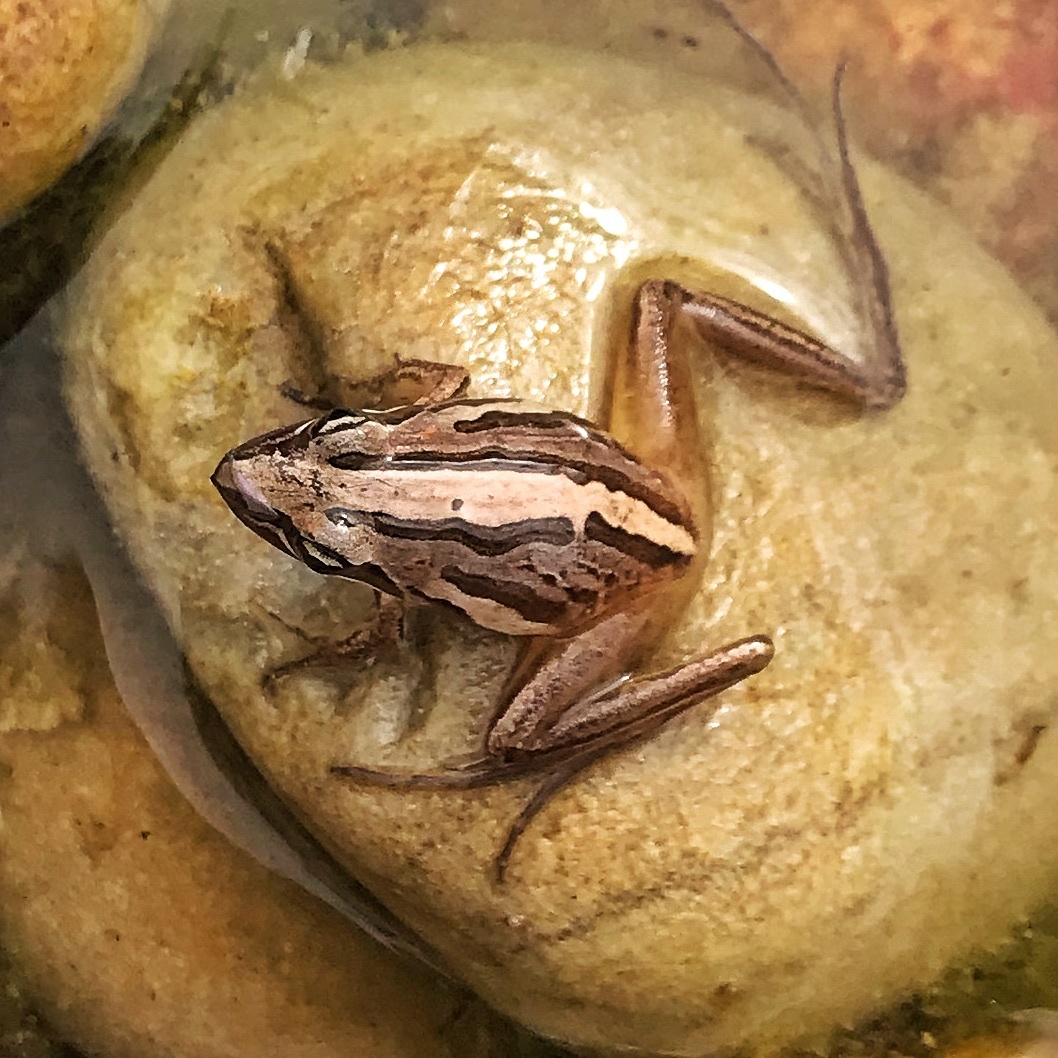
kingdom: Animalia
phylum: Chordata
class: Amphibia
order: Anura
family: Pyxicephalidae
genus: Strongylopus
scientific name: Strongylopus fasciatus
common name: Striped stream frog
